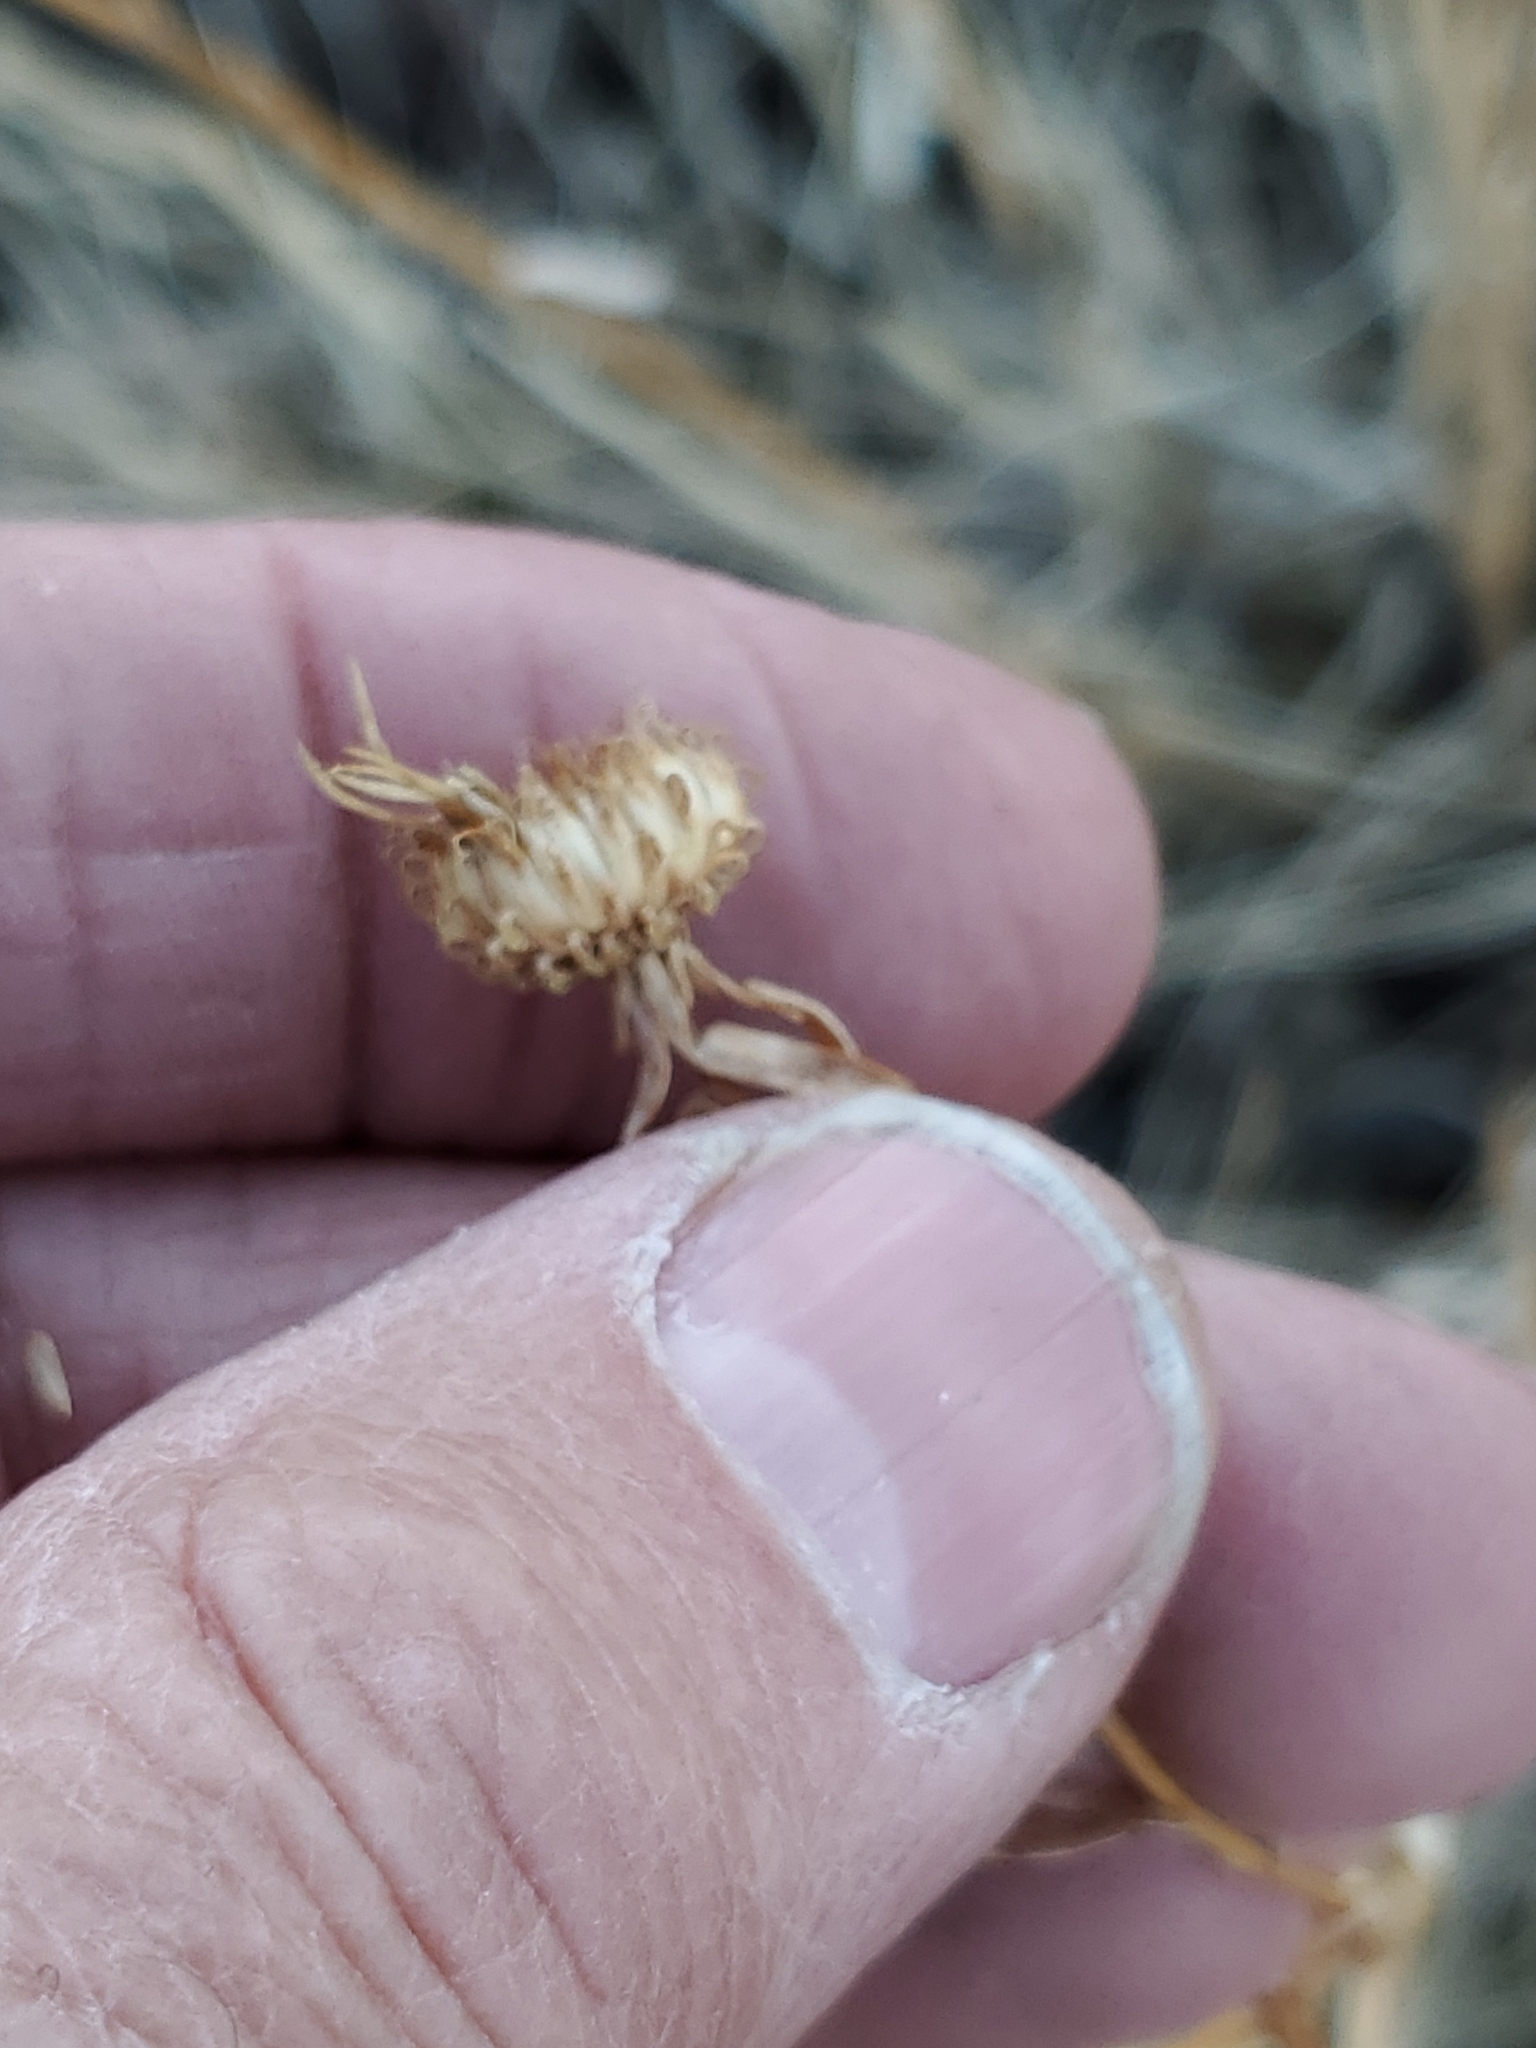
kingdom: Plantae
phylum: Tracheophyta
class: Magnoliopsida
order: Asterales
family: Asteraceae
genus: Grindelia
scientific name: Grindelia squarrosa
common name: Curly-cup gumweed
